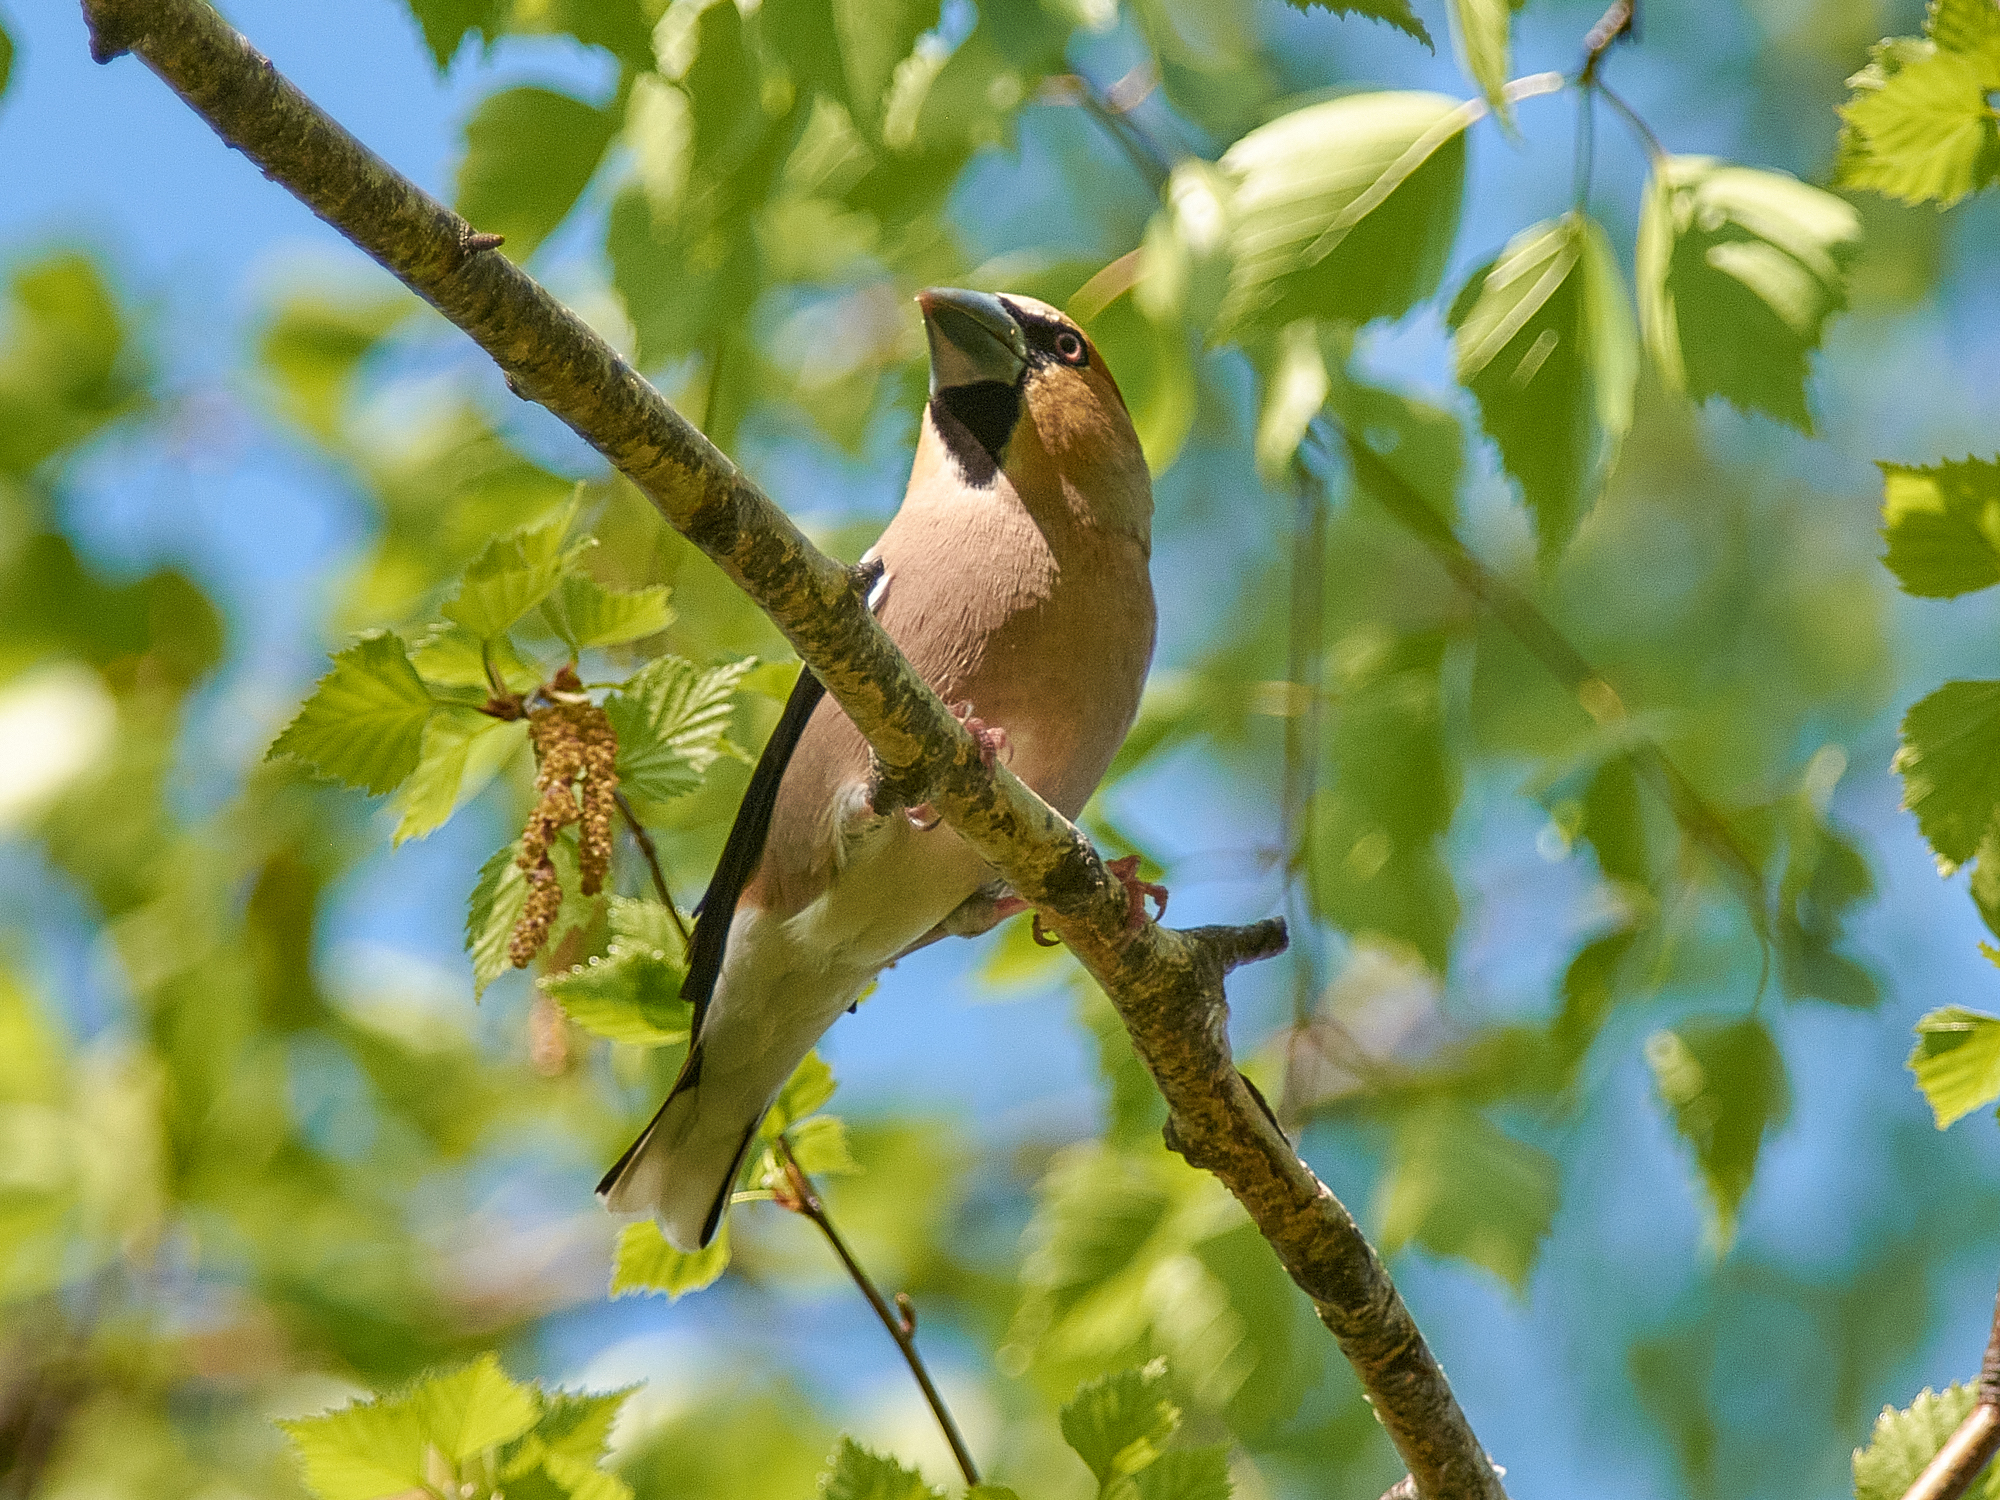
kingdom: Animalia
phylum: Chordata
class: Aves
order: Passeriformes
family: Fringillidae
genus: Coccothraustes
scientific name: Coccothraustes coccothraustes
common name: Hawfinch
